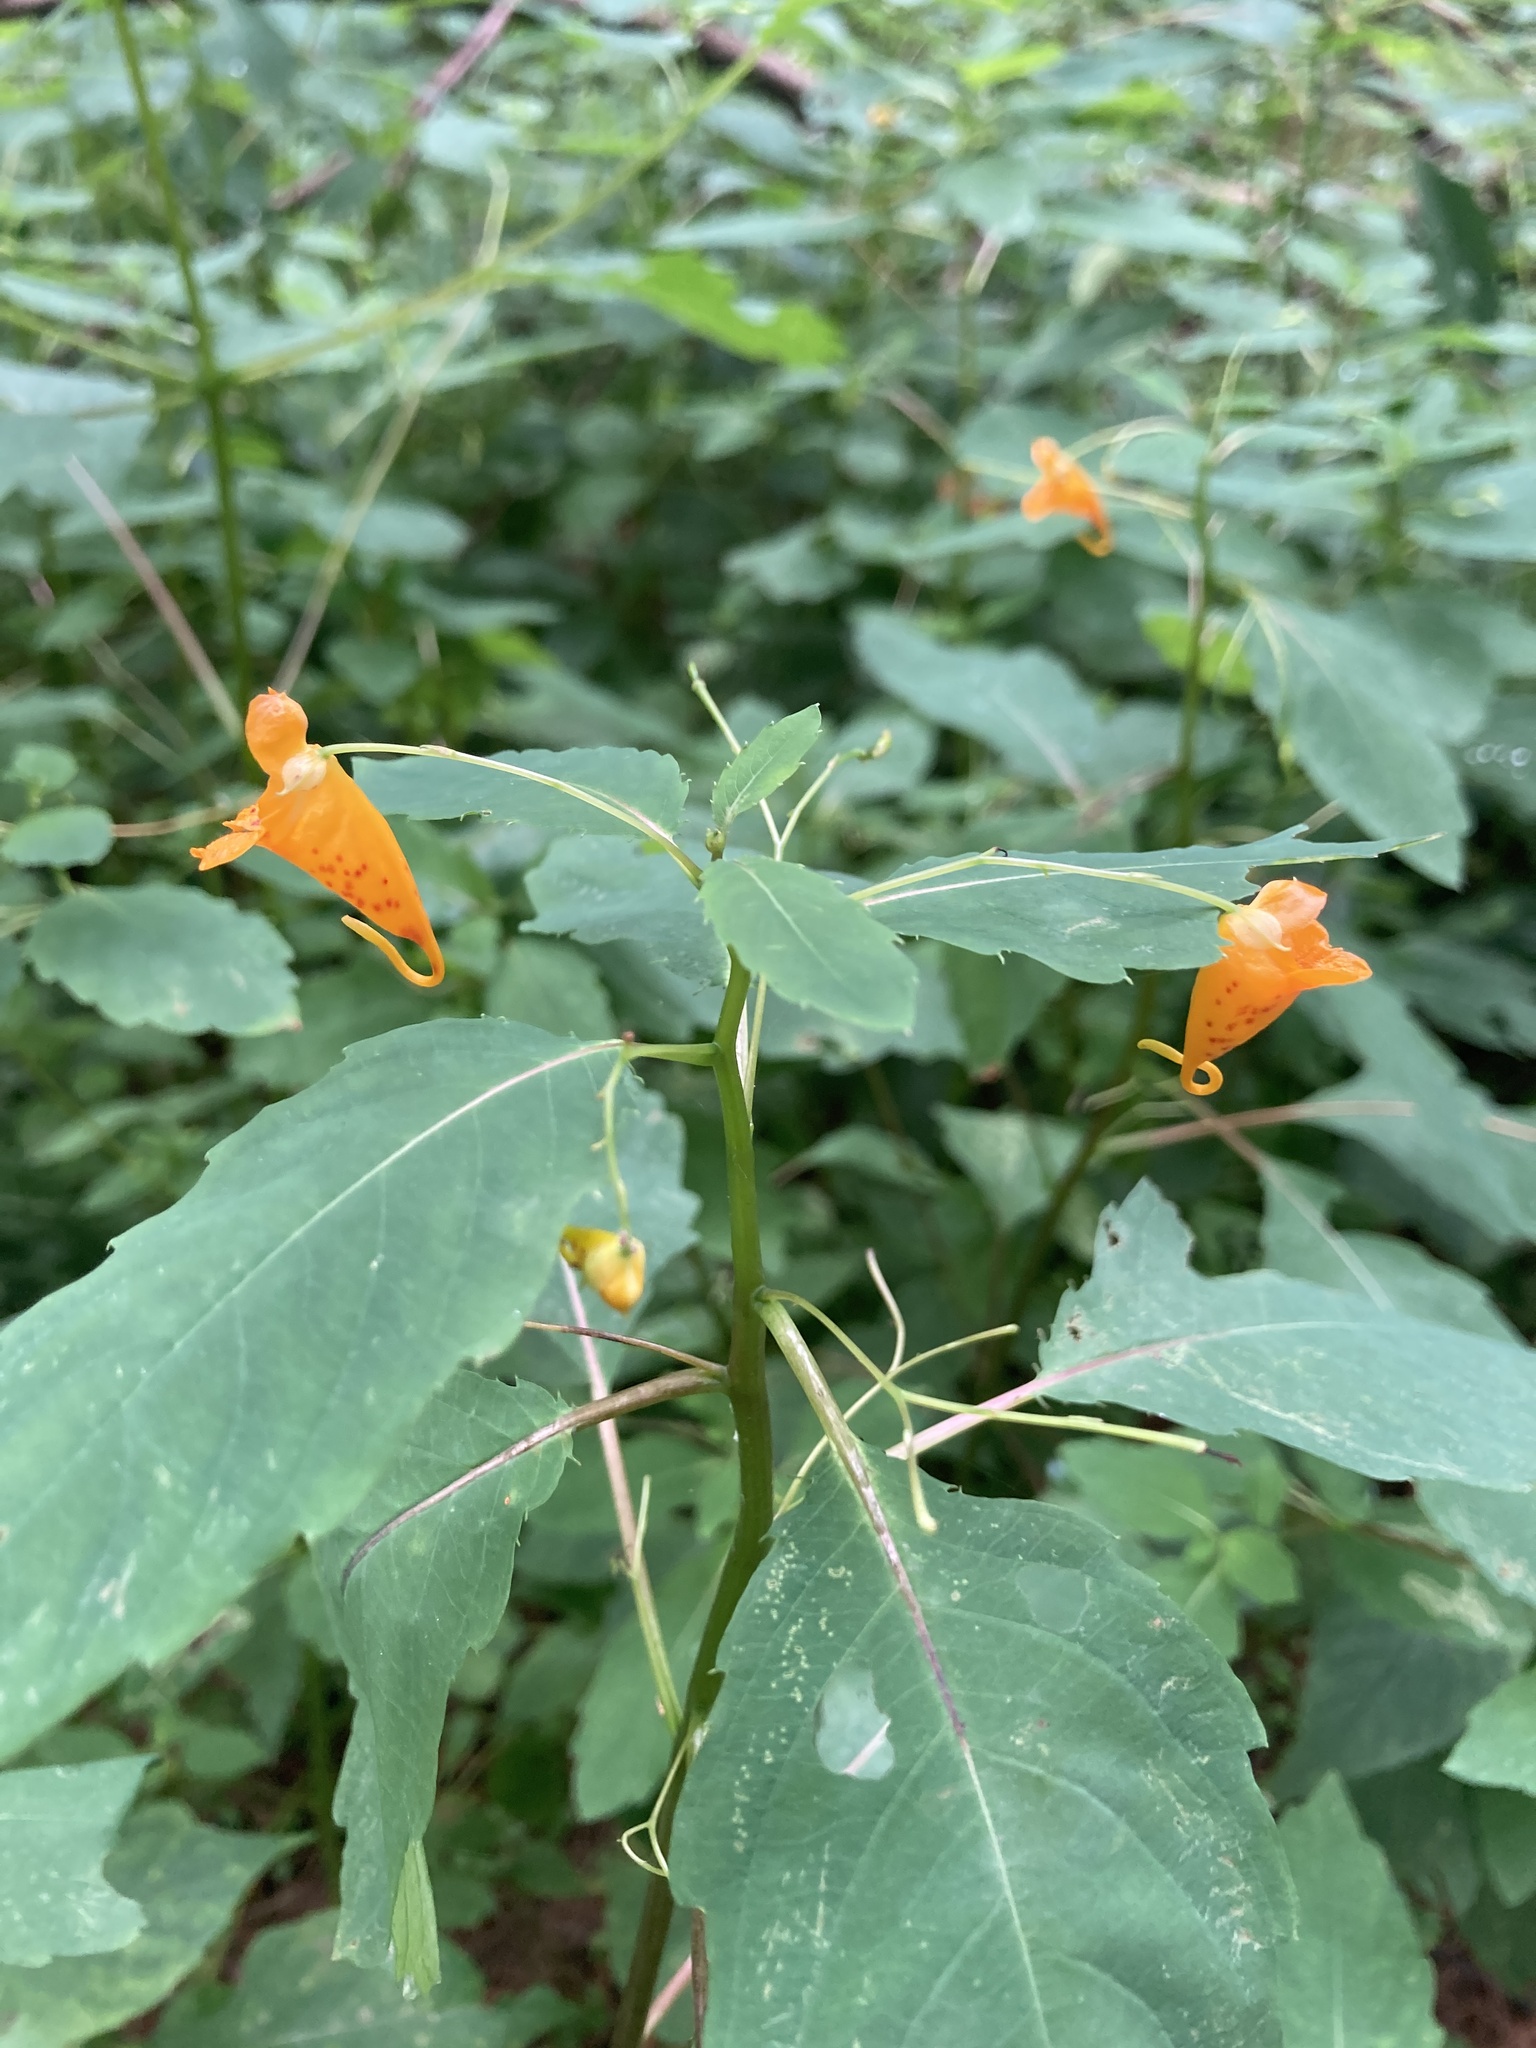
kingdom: Plantae
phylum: Tracheophyta
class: Magnoliopsida
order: Ericales
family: Balsaminaceae
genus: Impatiens
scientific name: Impatiens capensis
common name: Orange balsam
